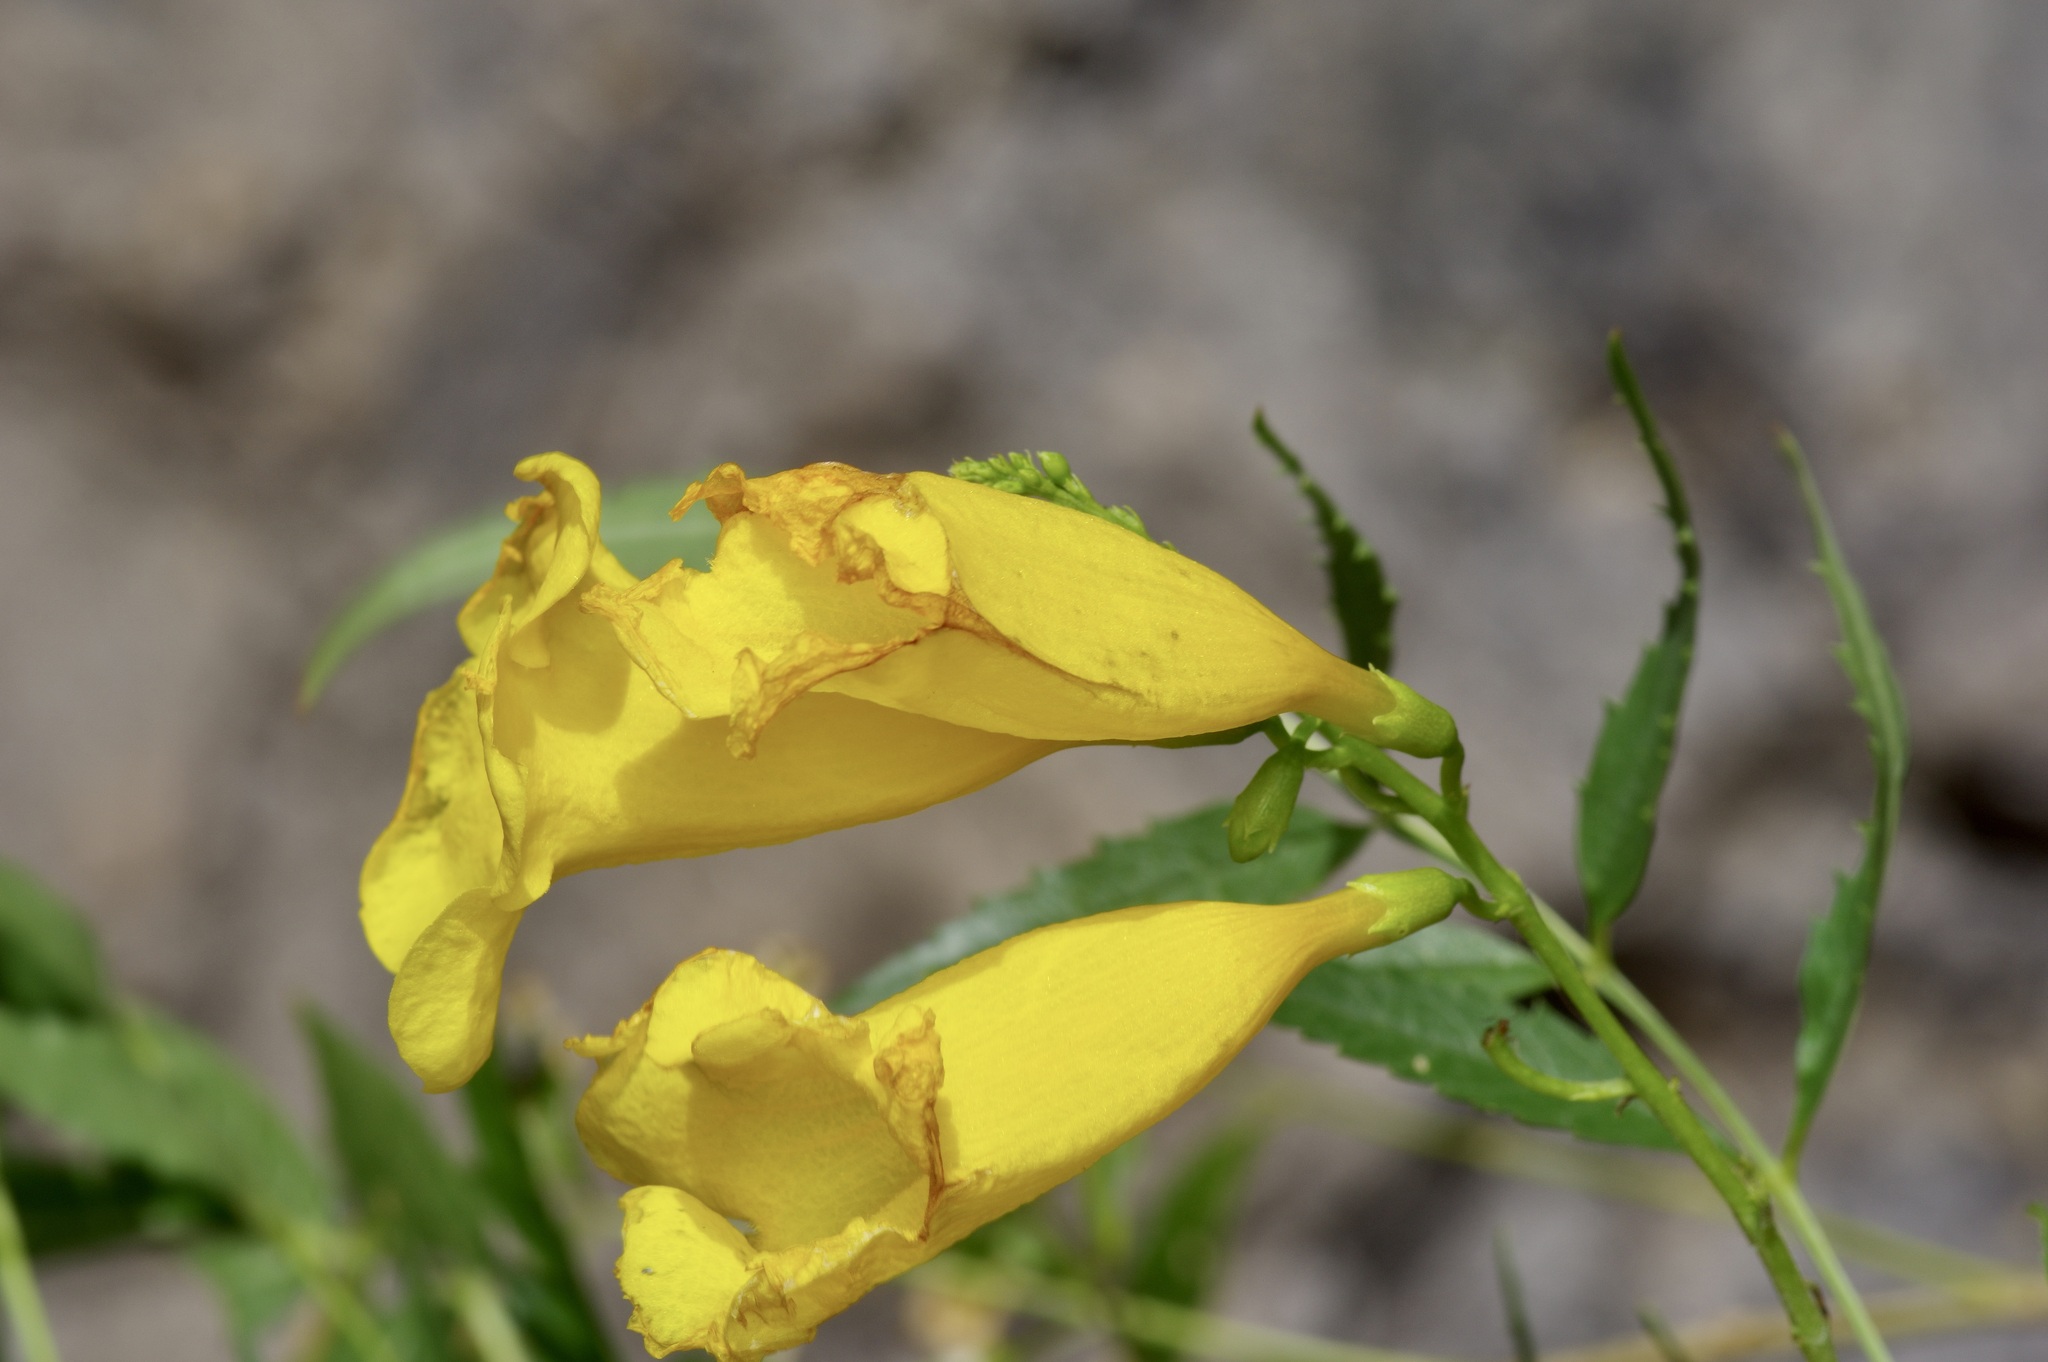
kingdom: Plantae
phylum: Tracheophyta
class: Magnoliopsida
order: Lamiales
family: Bignoniaceae
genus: Tecoma
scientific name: Tecoma stans
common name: Yellow trumpetbush
